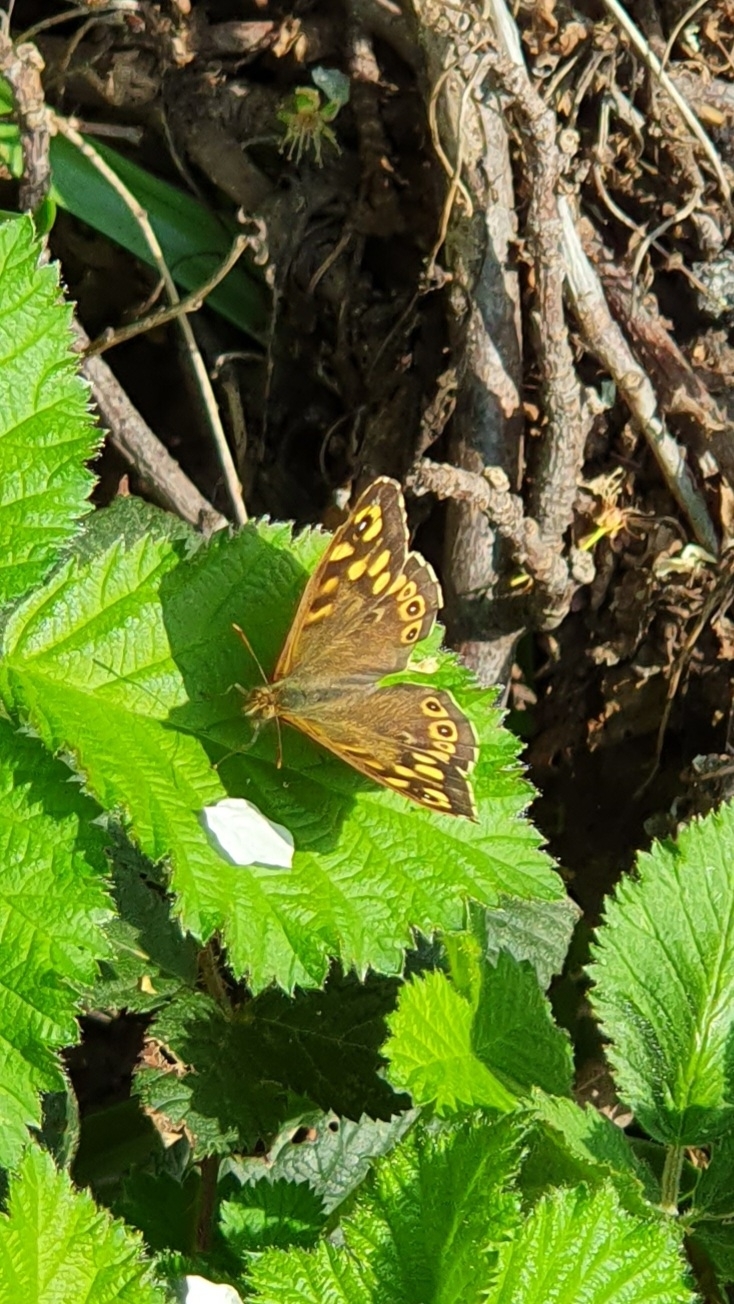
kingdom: Animalia
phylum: Arthropoda
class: Insecta
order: Lepidoptera
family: Nymphalidae
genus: Pararge
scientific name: Pararge aegeria
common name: Speckled wood
